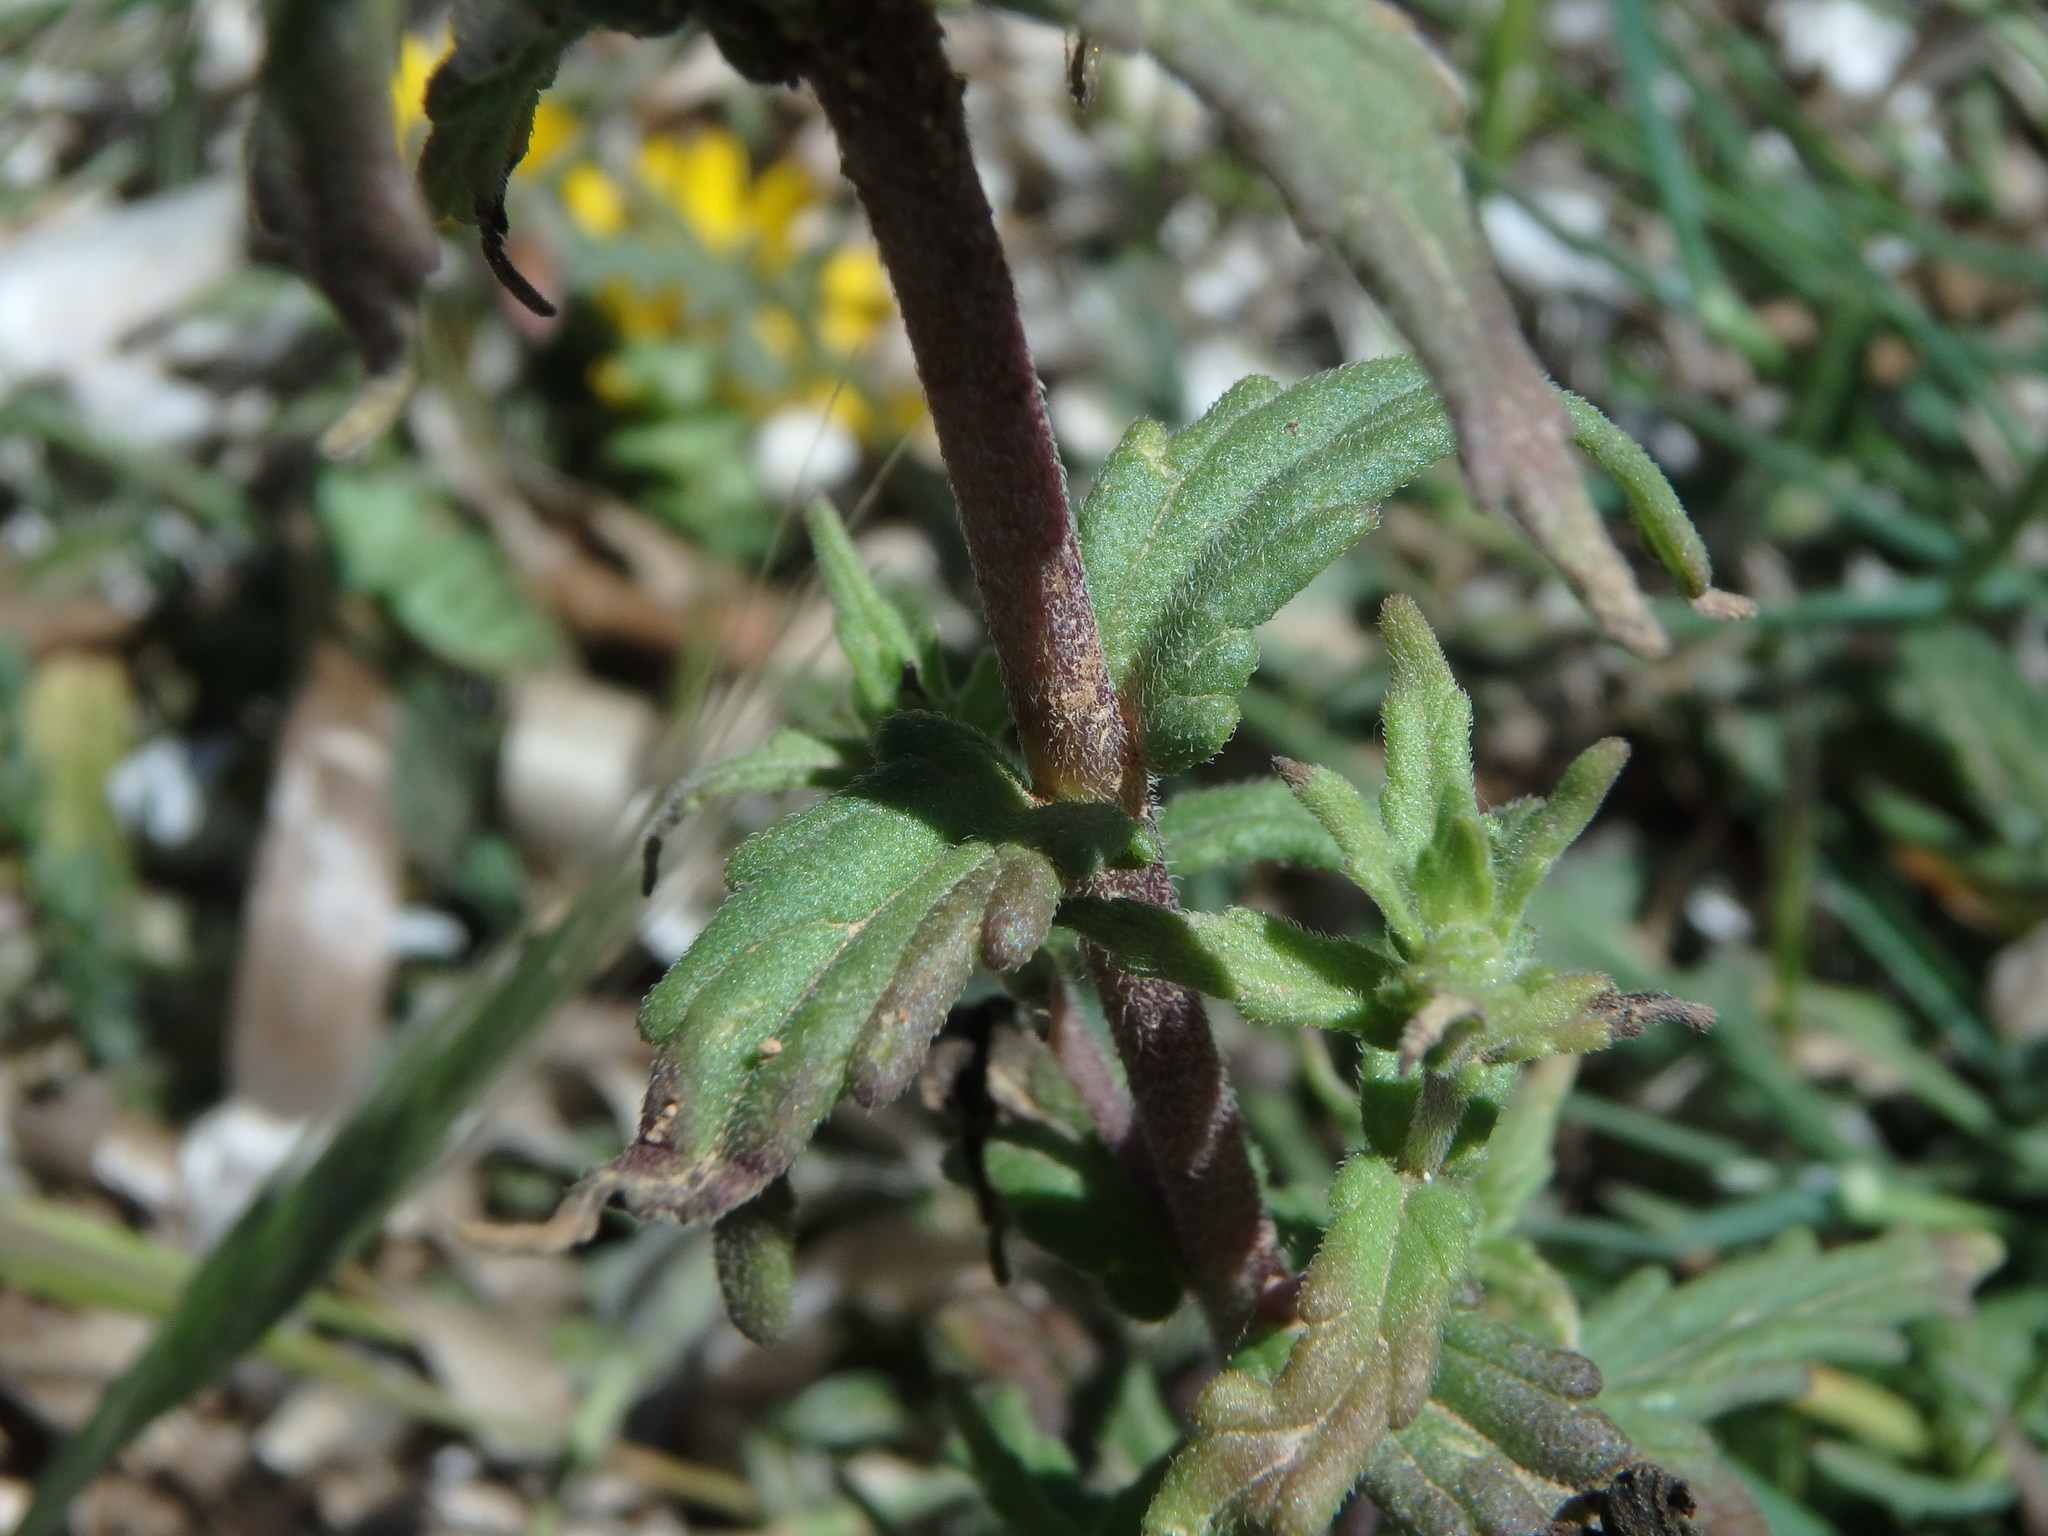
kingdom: Plantae
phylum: Tracheophyta
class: Magnoliopsida
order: Lamiales
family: Orobanchaceae
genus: Bellardia
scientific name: Bellardia trixago
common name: Mediterranean lineseed
